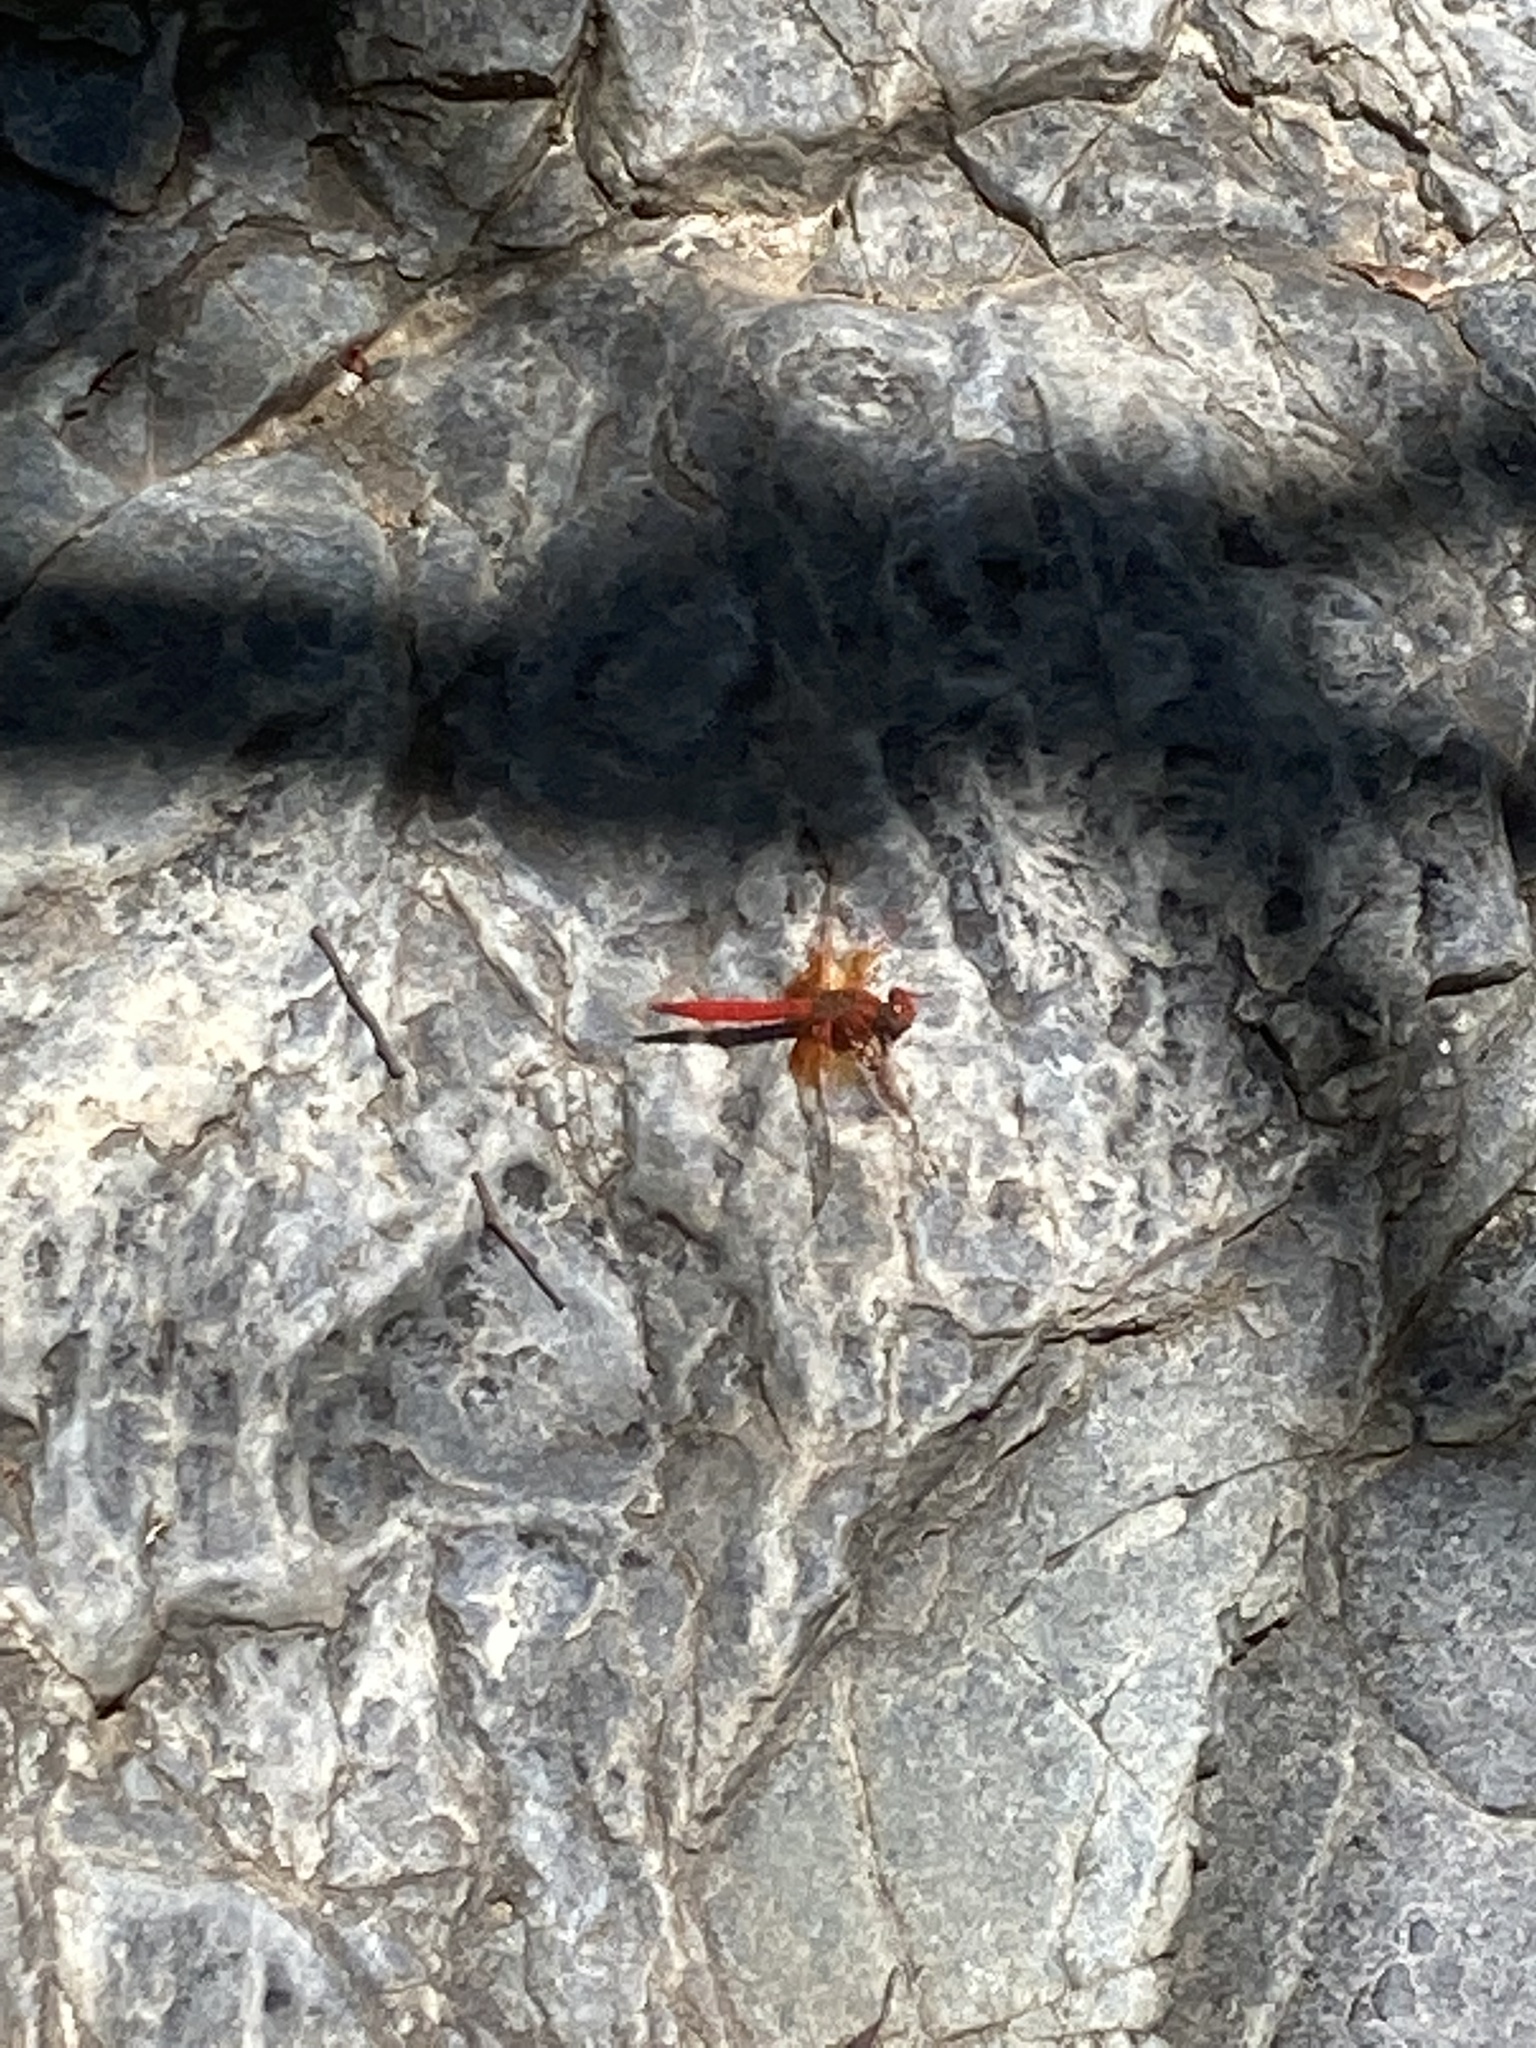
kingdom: Animalia
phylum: Arthropoda
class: Insecta
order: Odonata
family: Libellulidae
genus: Trithemis
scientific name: Trithemis kirbyi
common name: Kirby's dropwing
